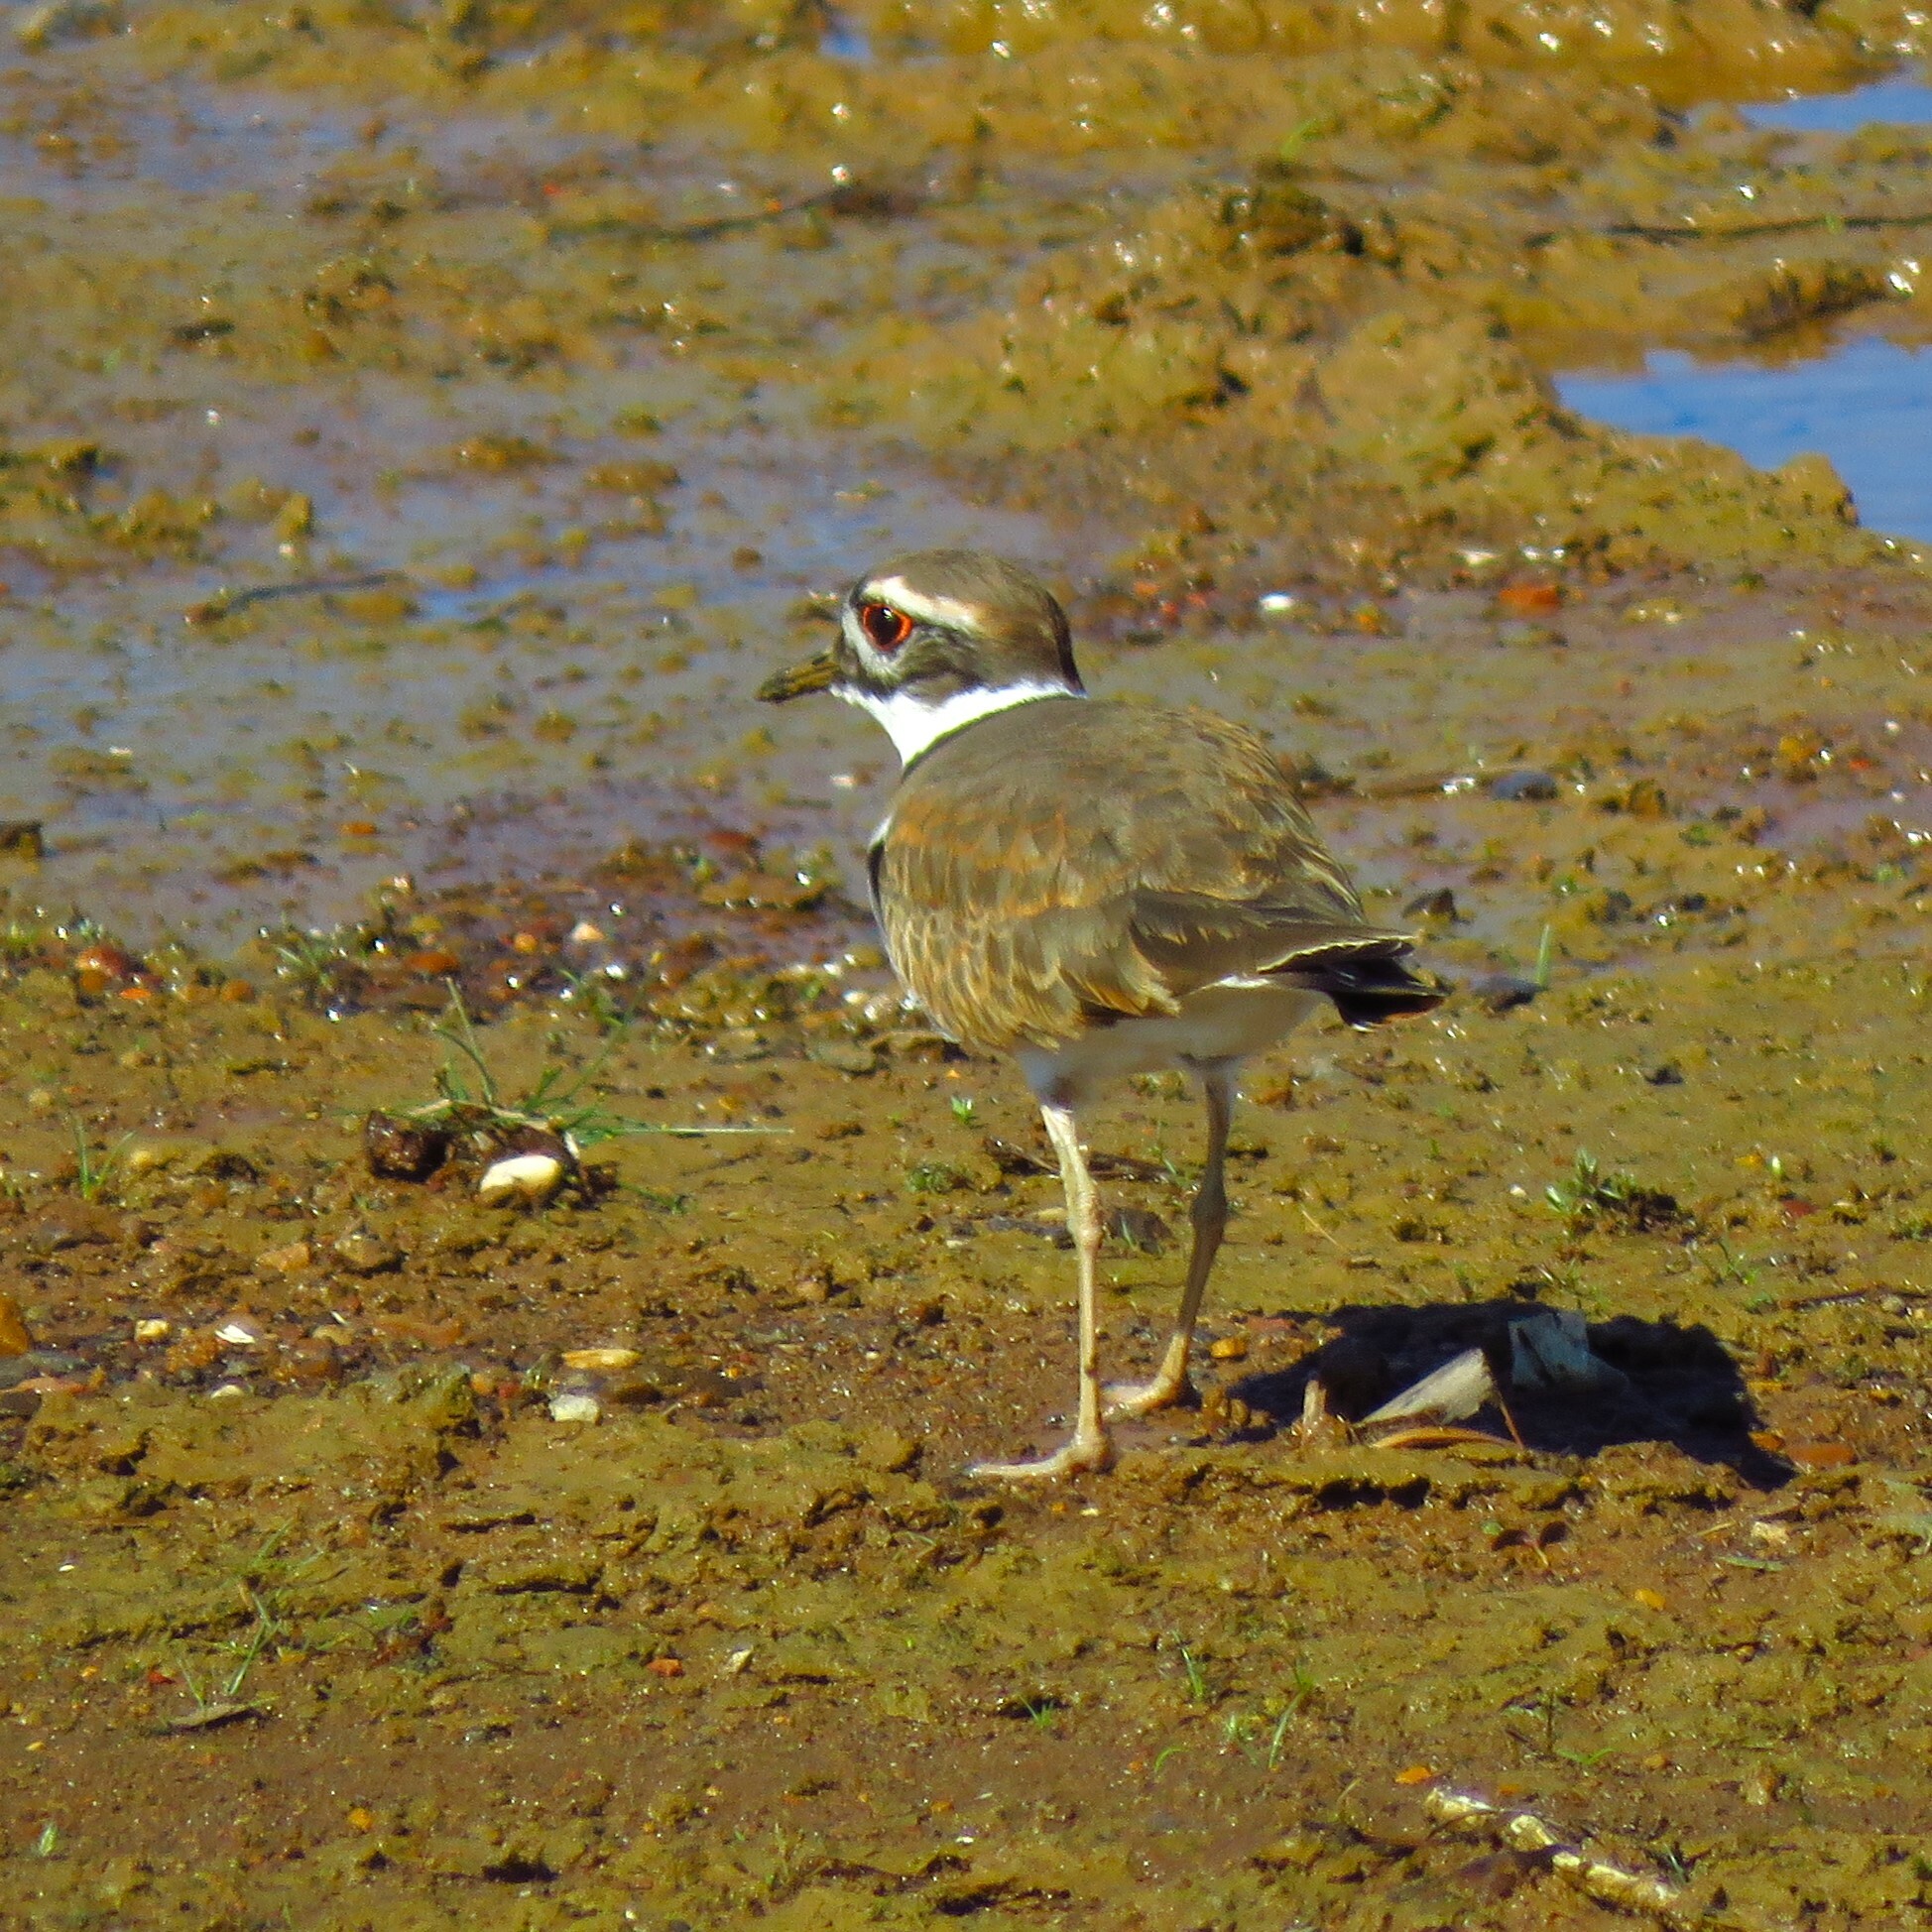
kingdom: Animalia
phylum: Chordata
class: Aves
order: Charadriiformes
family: Charadriidae
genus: Charadrius
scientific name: Charadrius vociferus
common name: Killdeer
